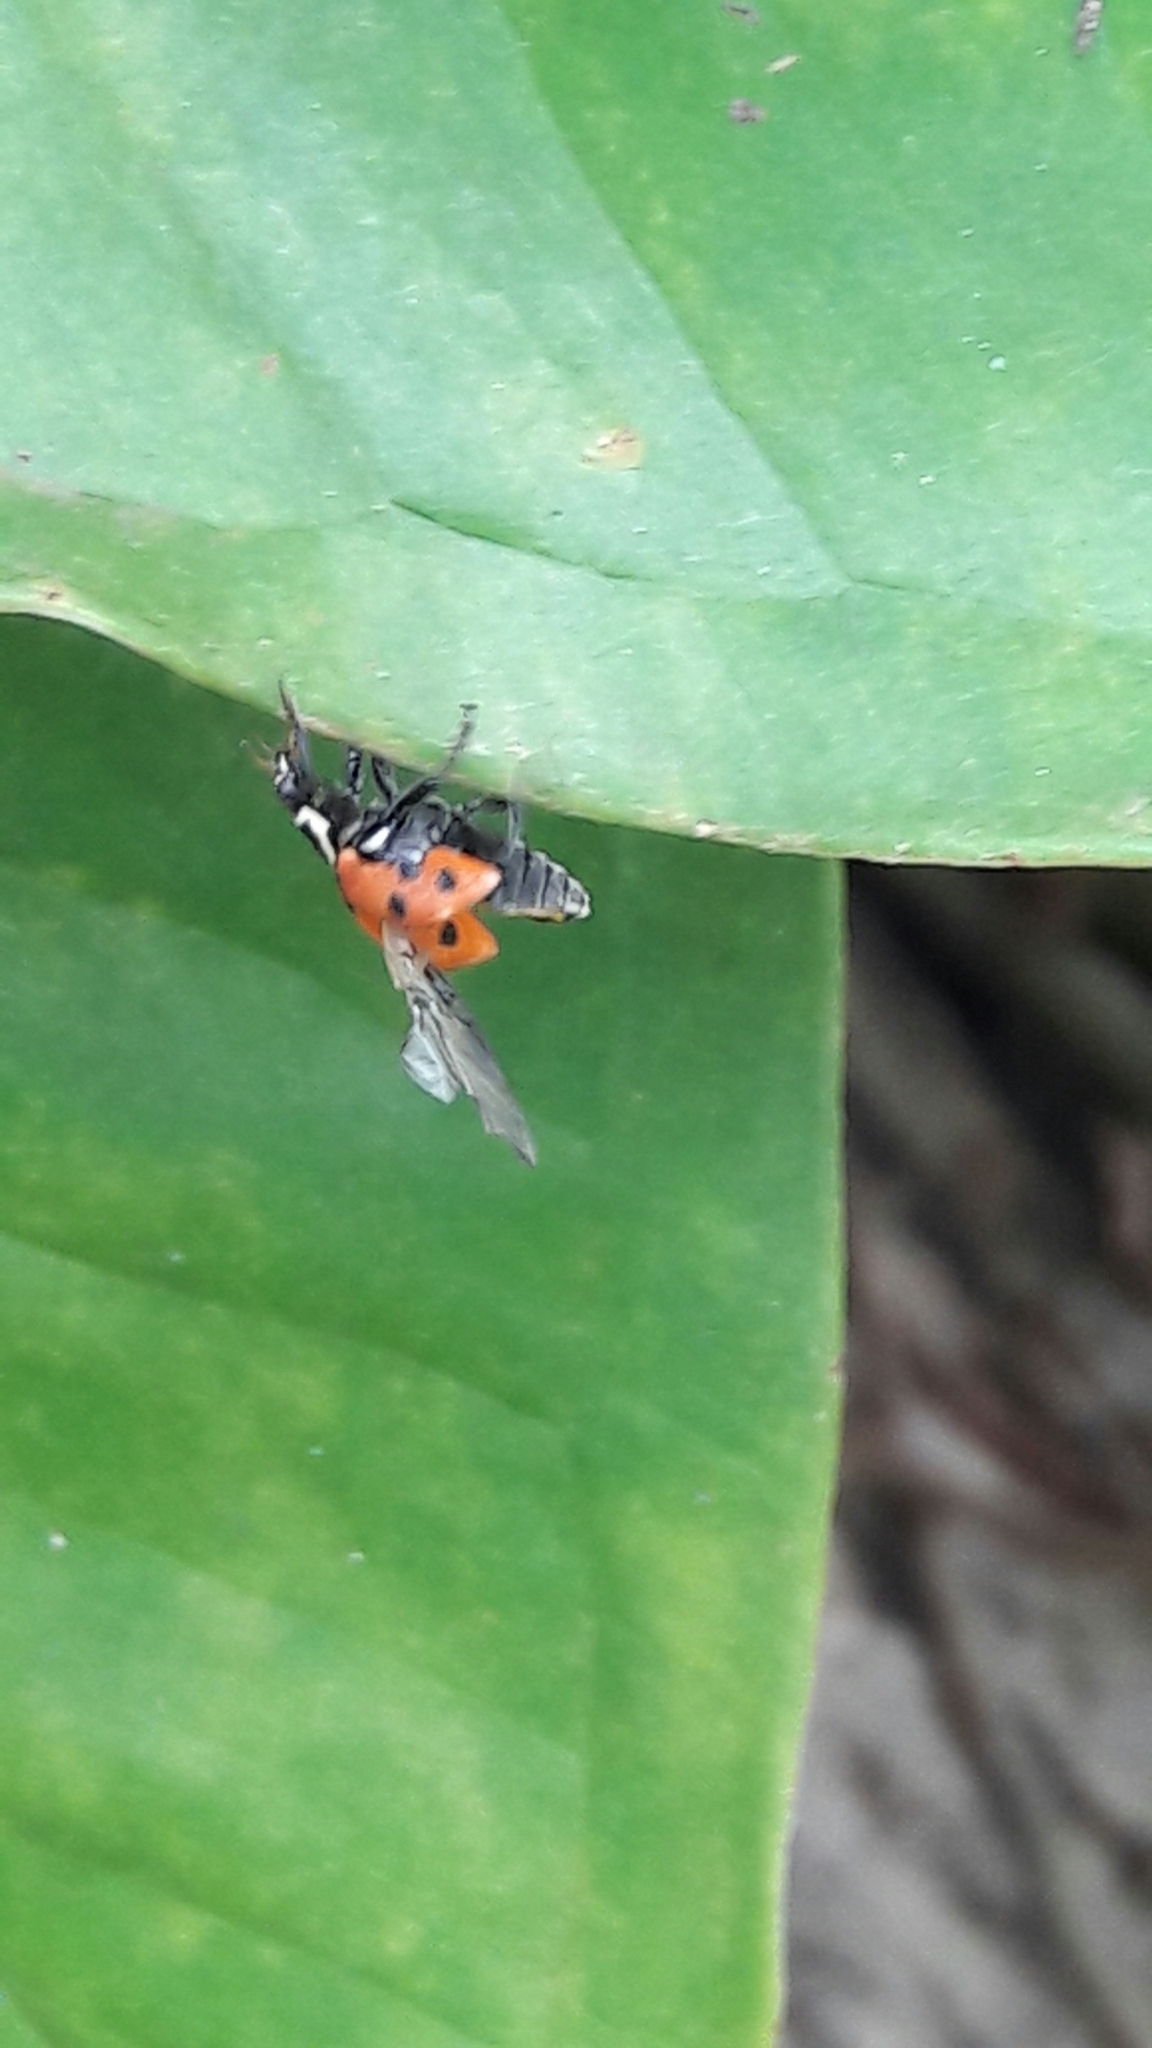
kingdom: Animalia
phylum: Arthropoda
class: Insecta
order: Coleoptera
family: Coccinellidae
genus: Hippodamia
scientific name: Hippodamia convergens
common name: Convergent lady beetle
